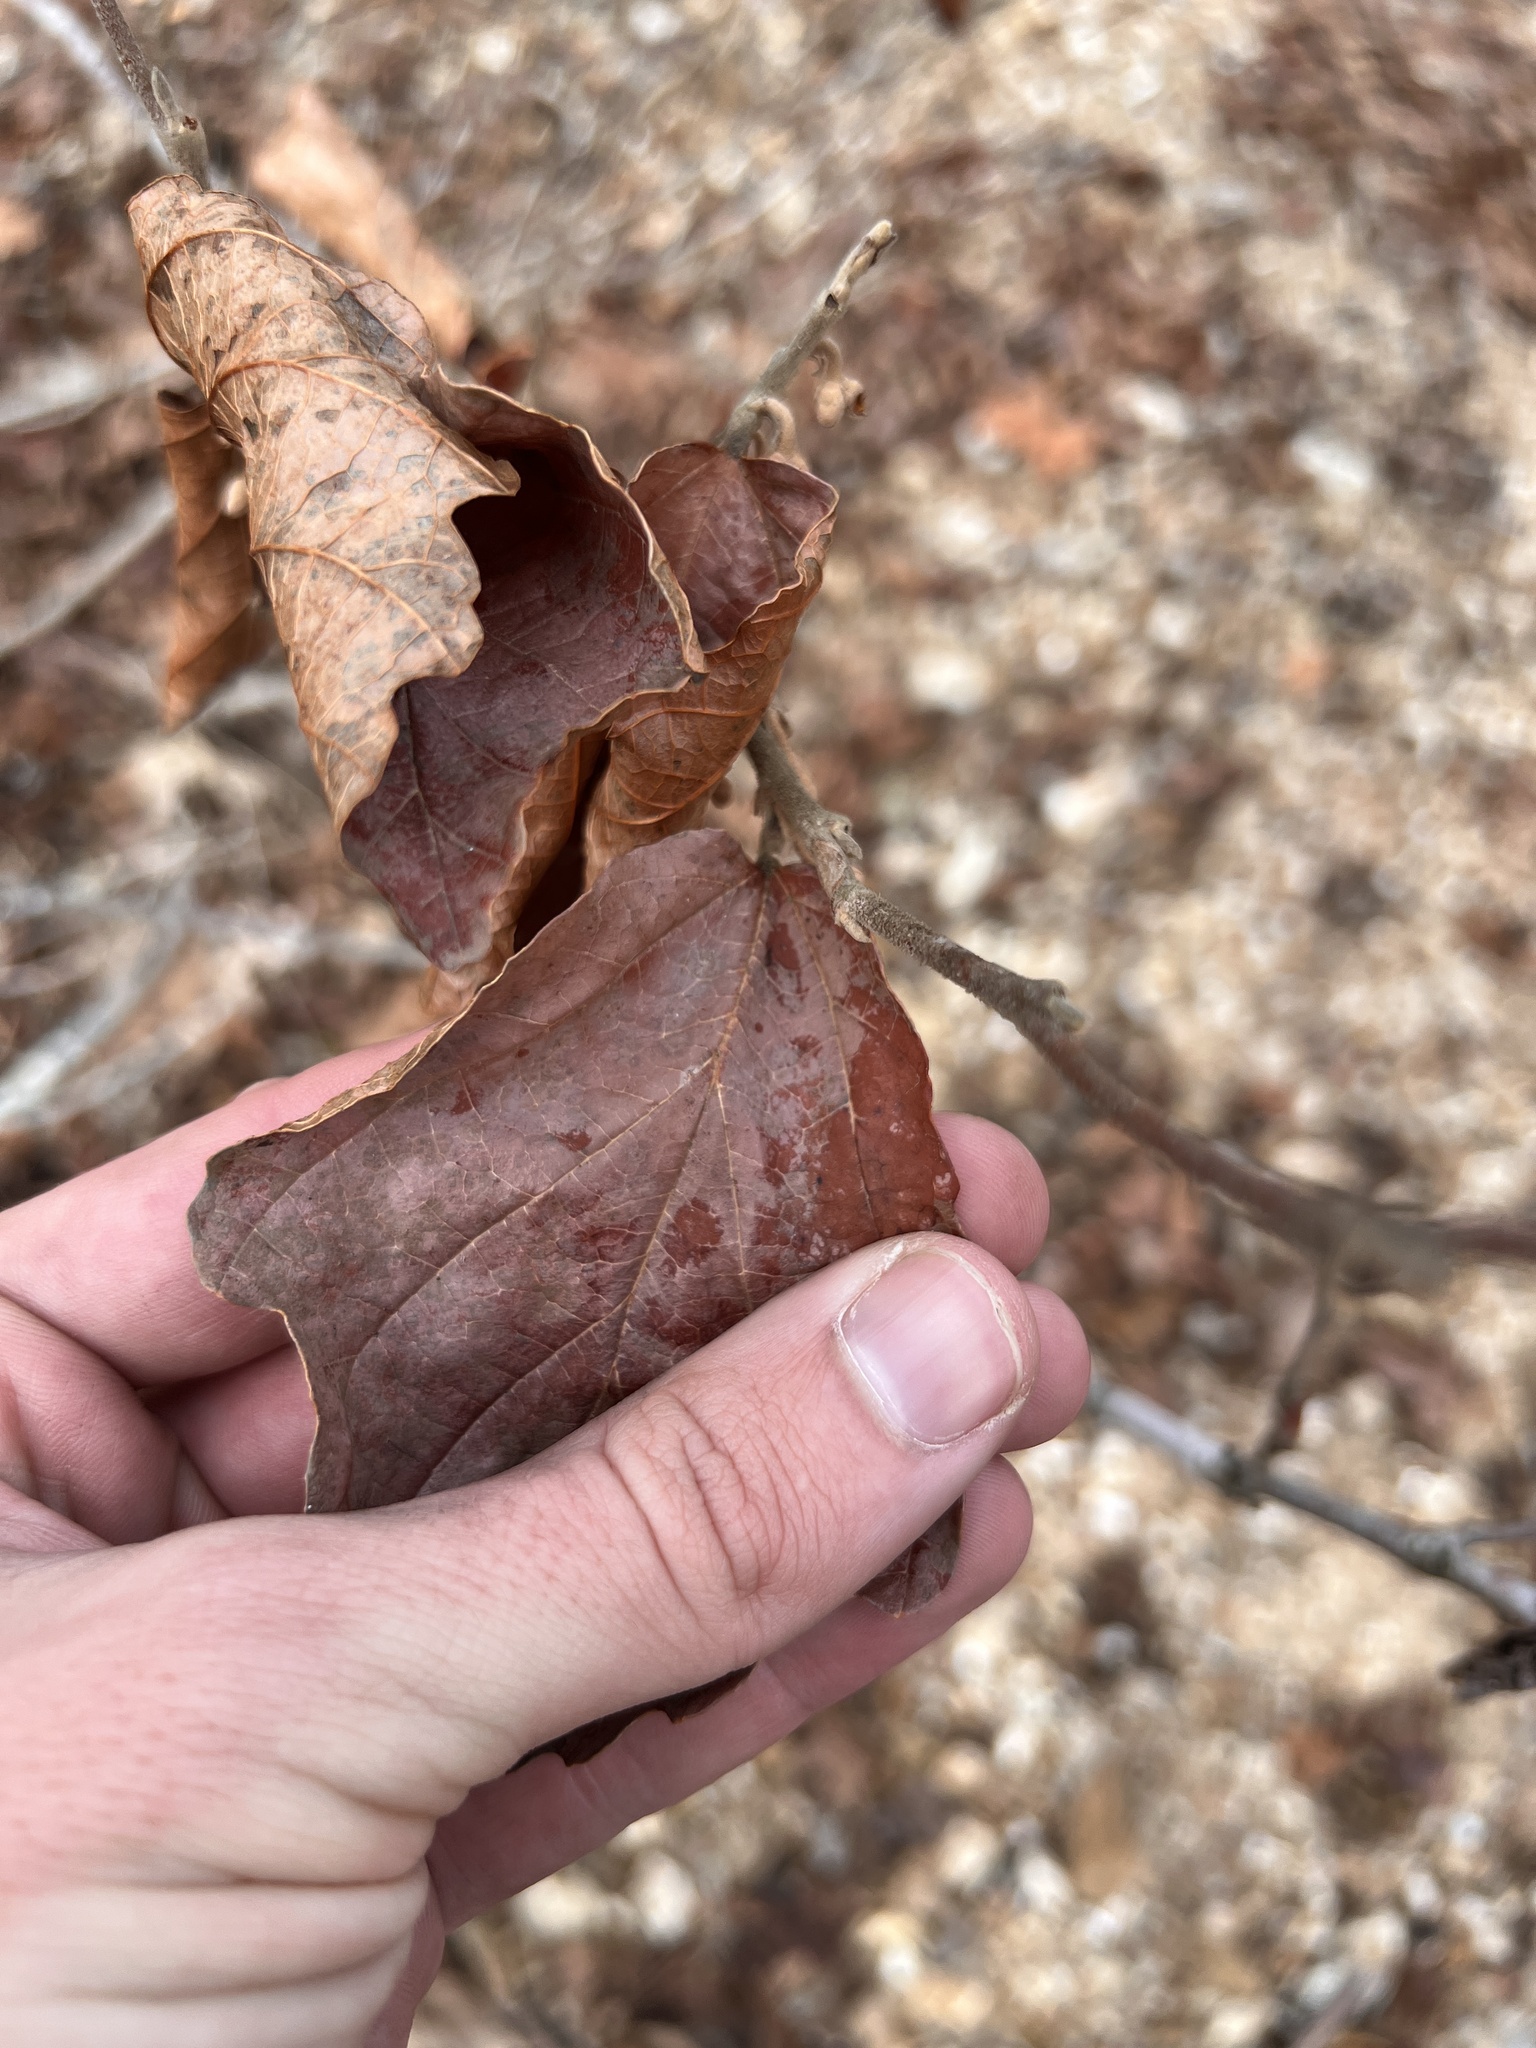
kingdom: Plantae
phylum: Tracheophyta
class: Magnoliopsida
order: Saxifragales
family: Hamamelidaceae
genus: Hamamelis
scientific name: Hamamelis vernalis
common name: Ozark witch-hazel
